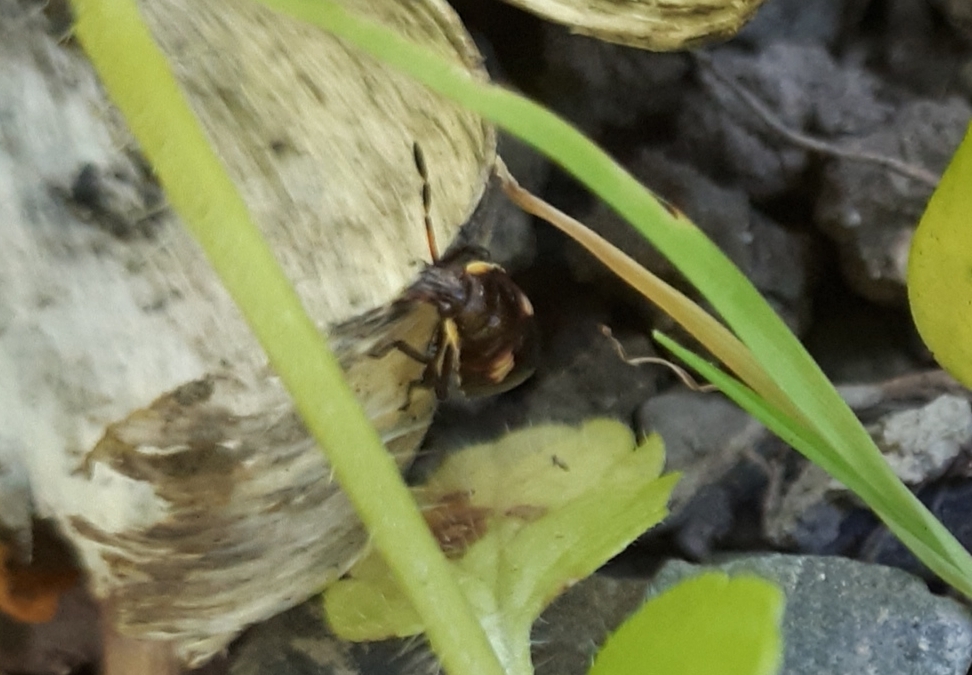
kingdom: Animalia
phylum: Arthropoda
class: Insecta
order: Hemiptera
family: Pentatomidae
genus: Cermatulus
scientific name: Cermatulus nasalis
